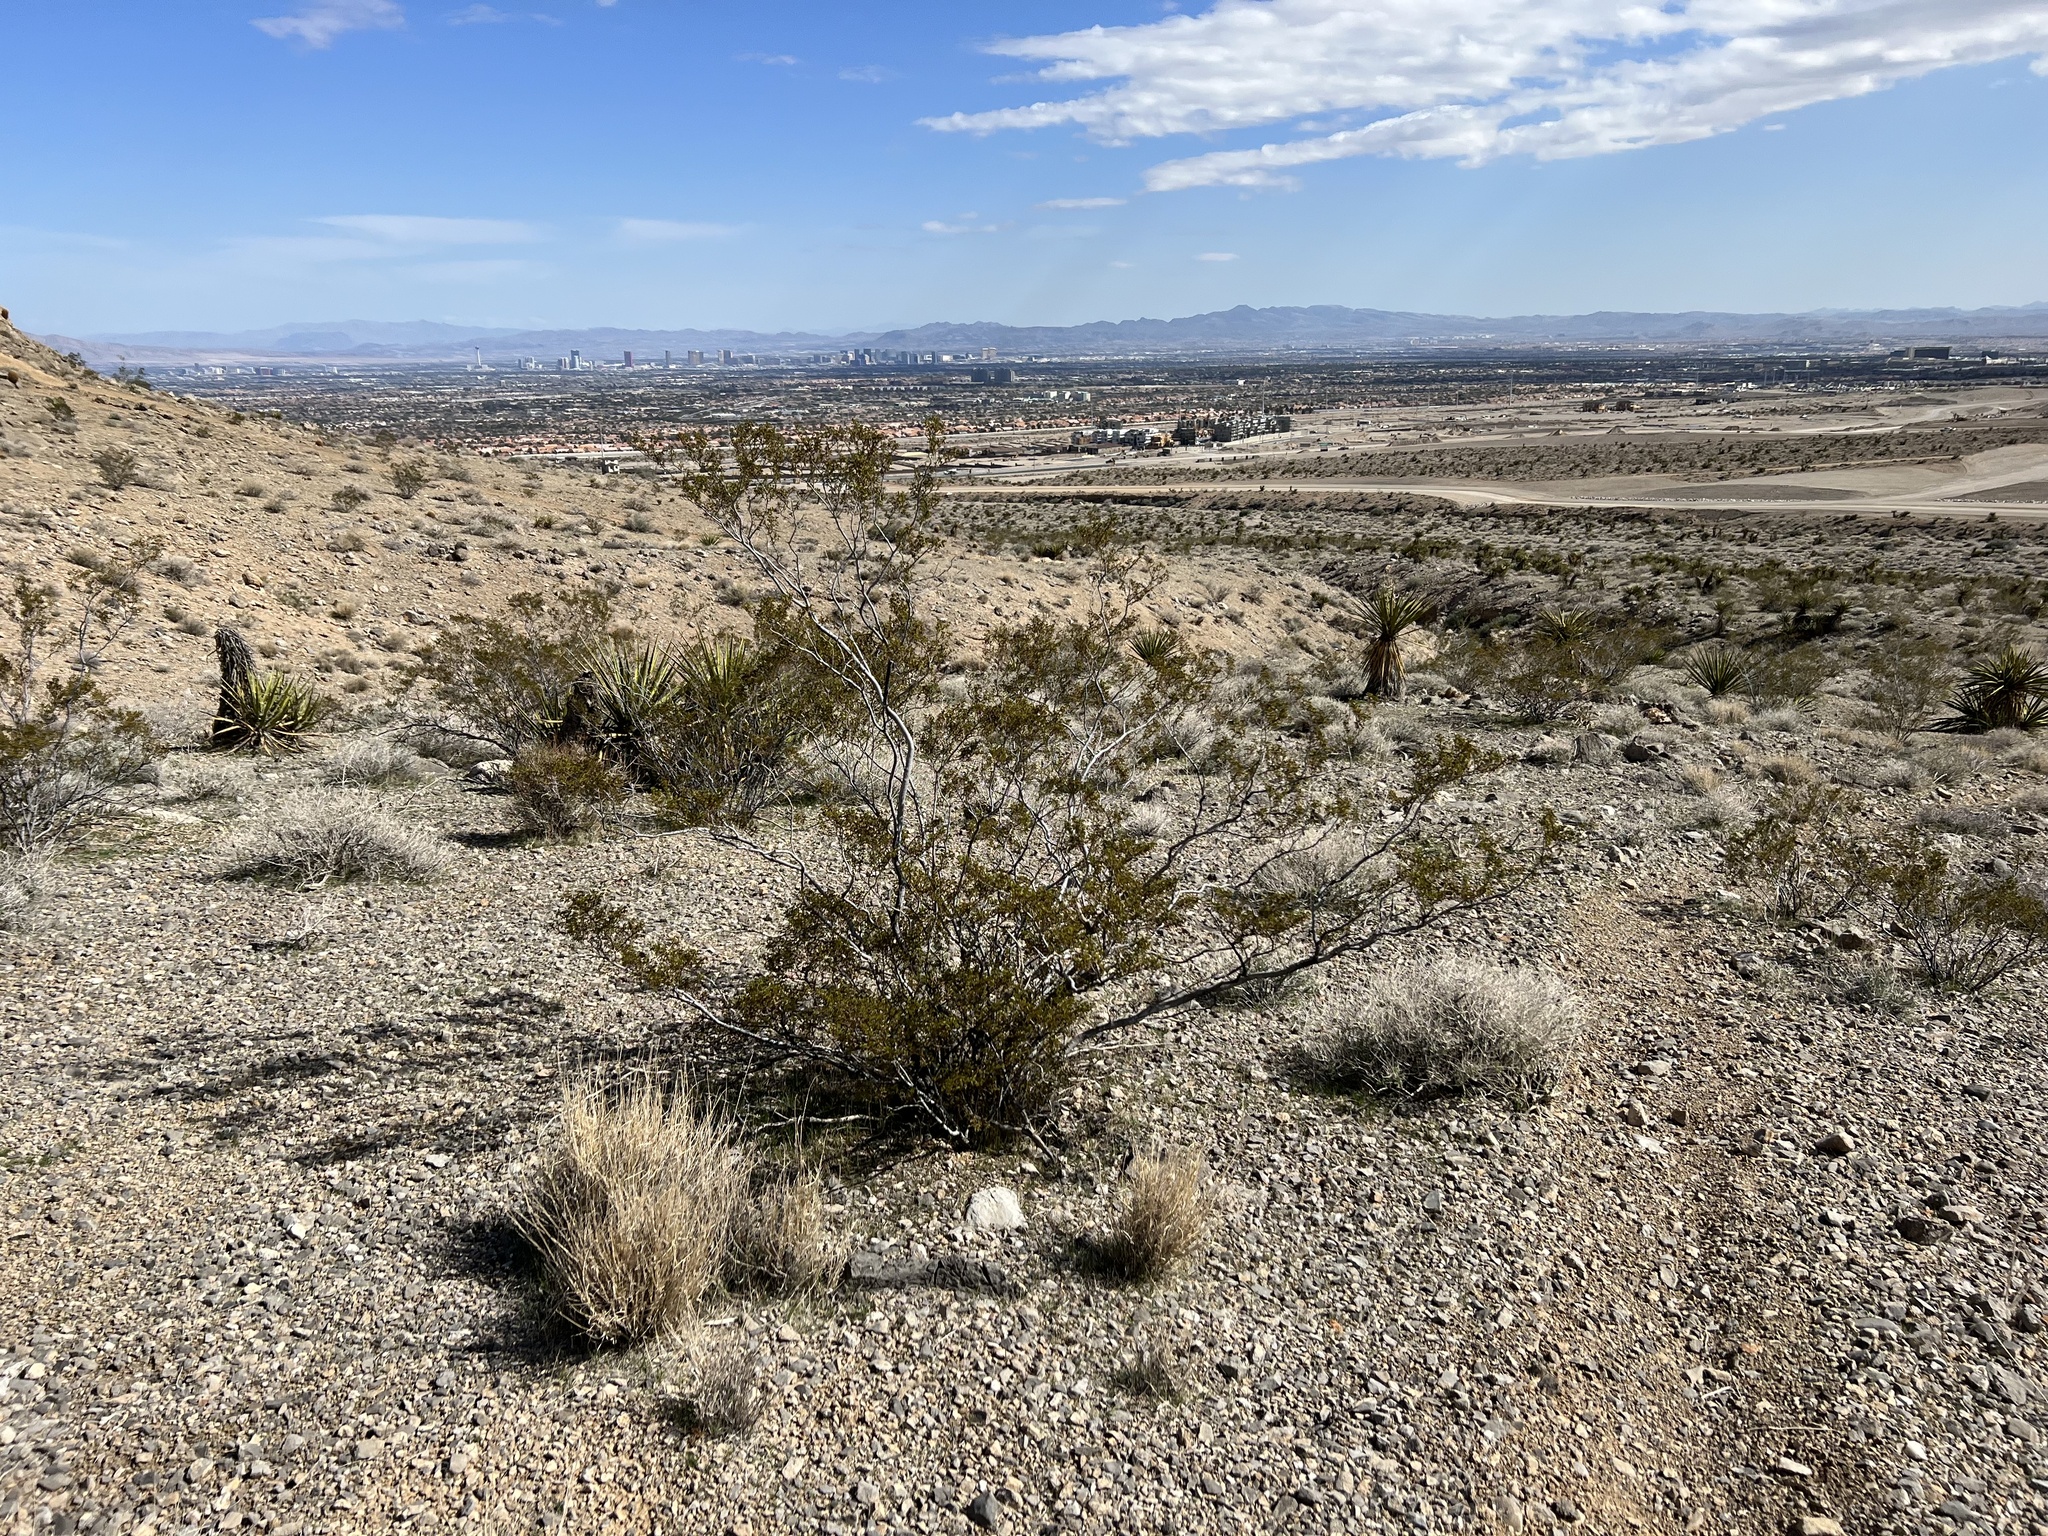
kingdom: Plantae
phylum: Tracheophyta
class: Magnoliopsida
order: Zygophyllales
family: Zygophyllaceae
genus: Larrea
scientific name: Larrea tridentata
